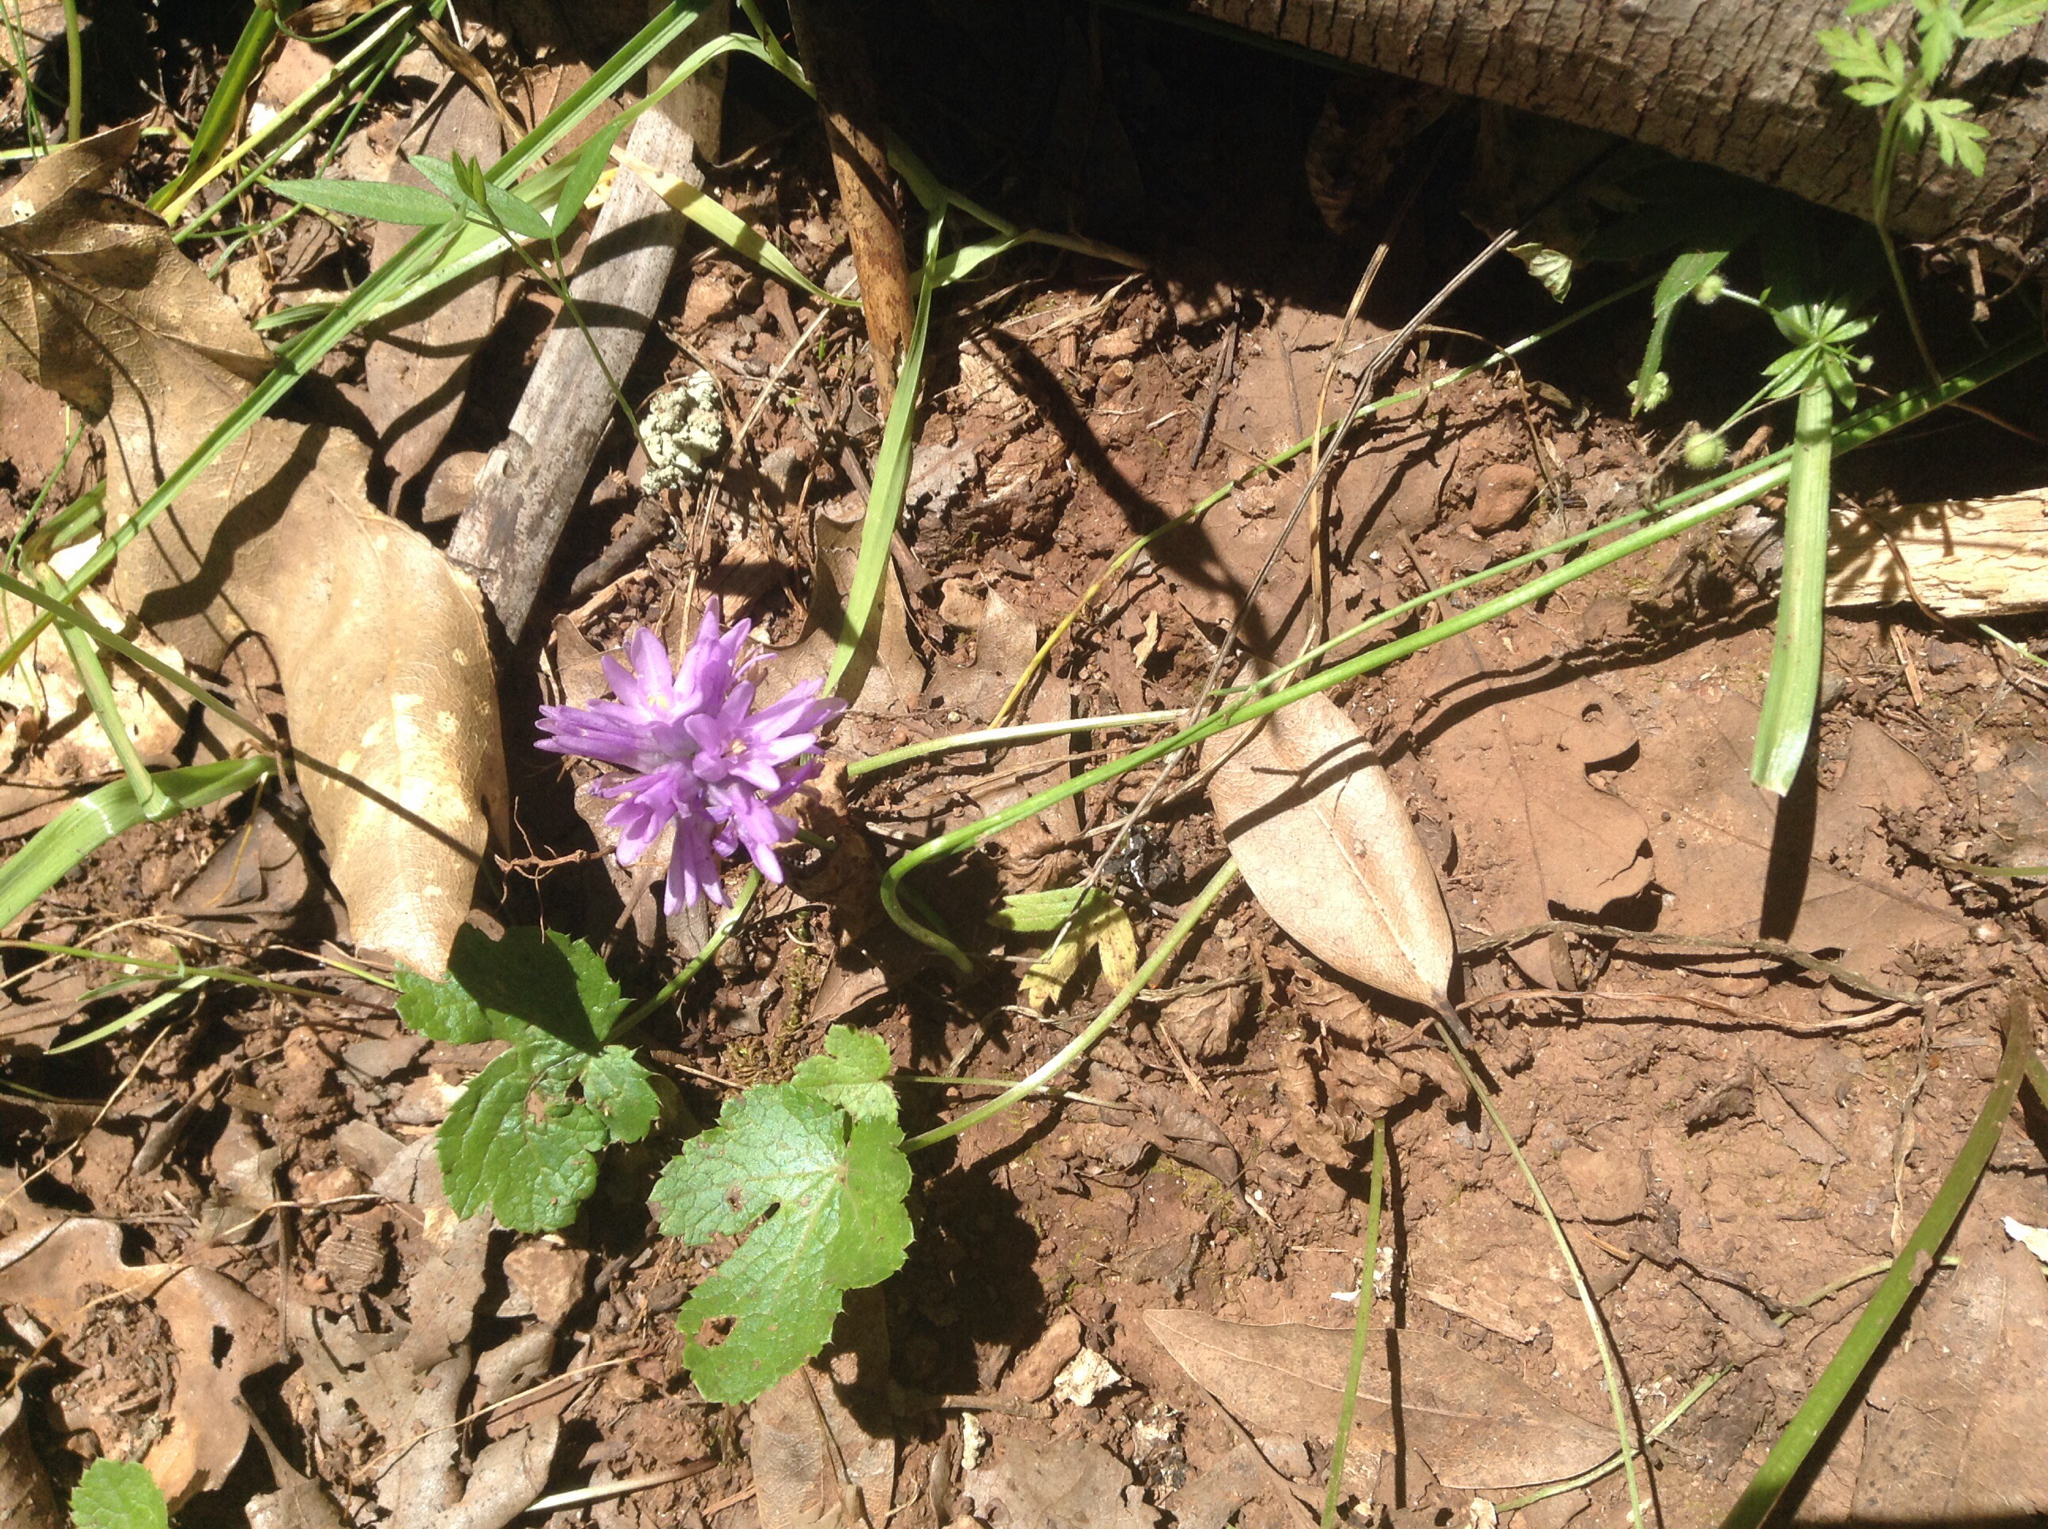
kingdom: Plantae
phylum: Tracheophyta
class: Liliopsida
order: Asparagales
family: Asparagaceae
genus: Dichelostemma
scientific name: Dichelostemma congestum
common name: Fork-tooth ookow
